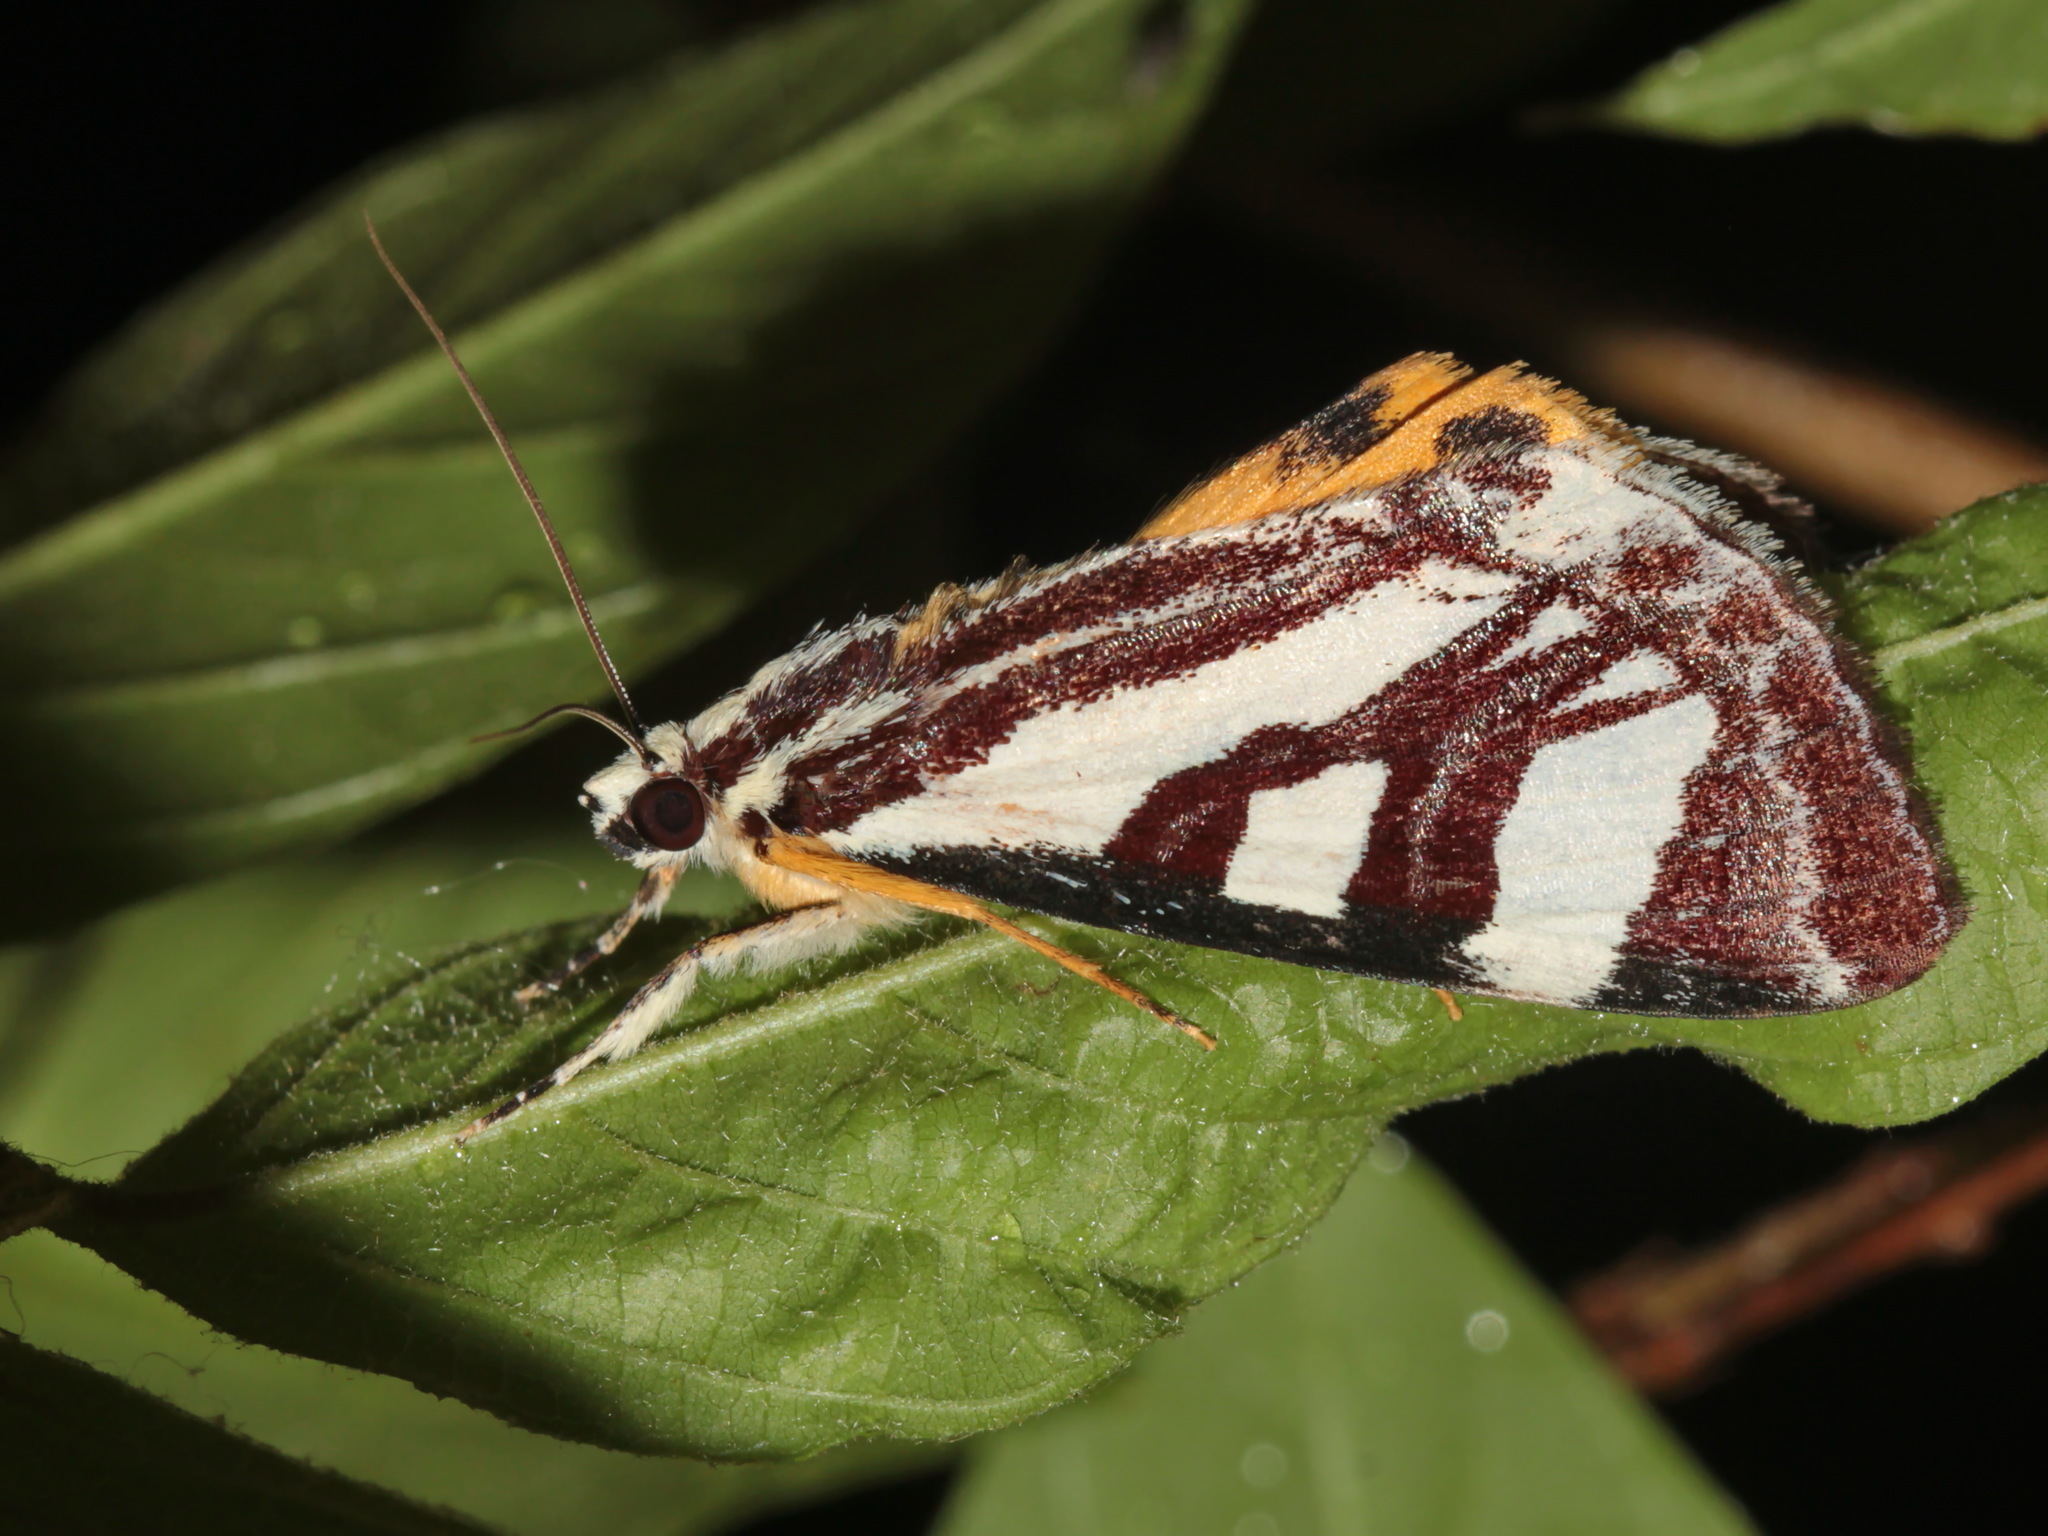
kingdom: Animalia
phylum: Arthropoda
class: Insecta
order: Lepidoptera
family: Noctuidae
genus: Sarbanissa
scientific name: Sarbanissa vitalis
